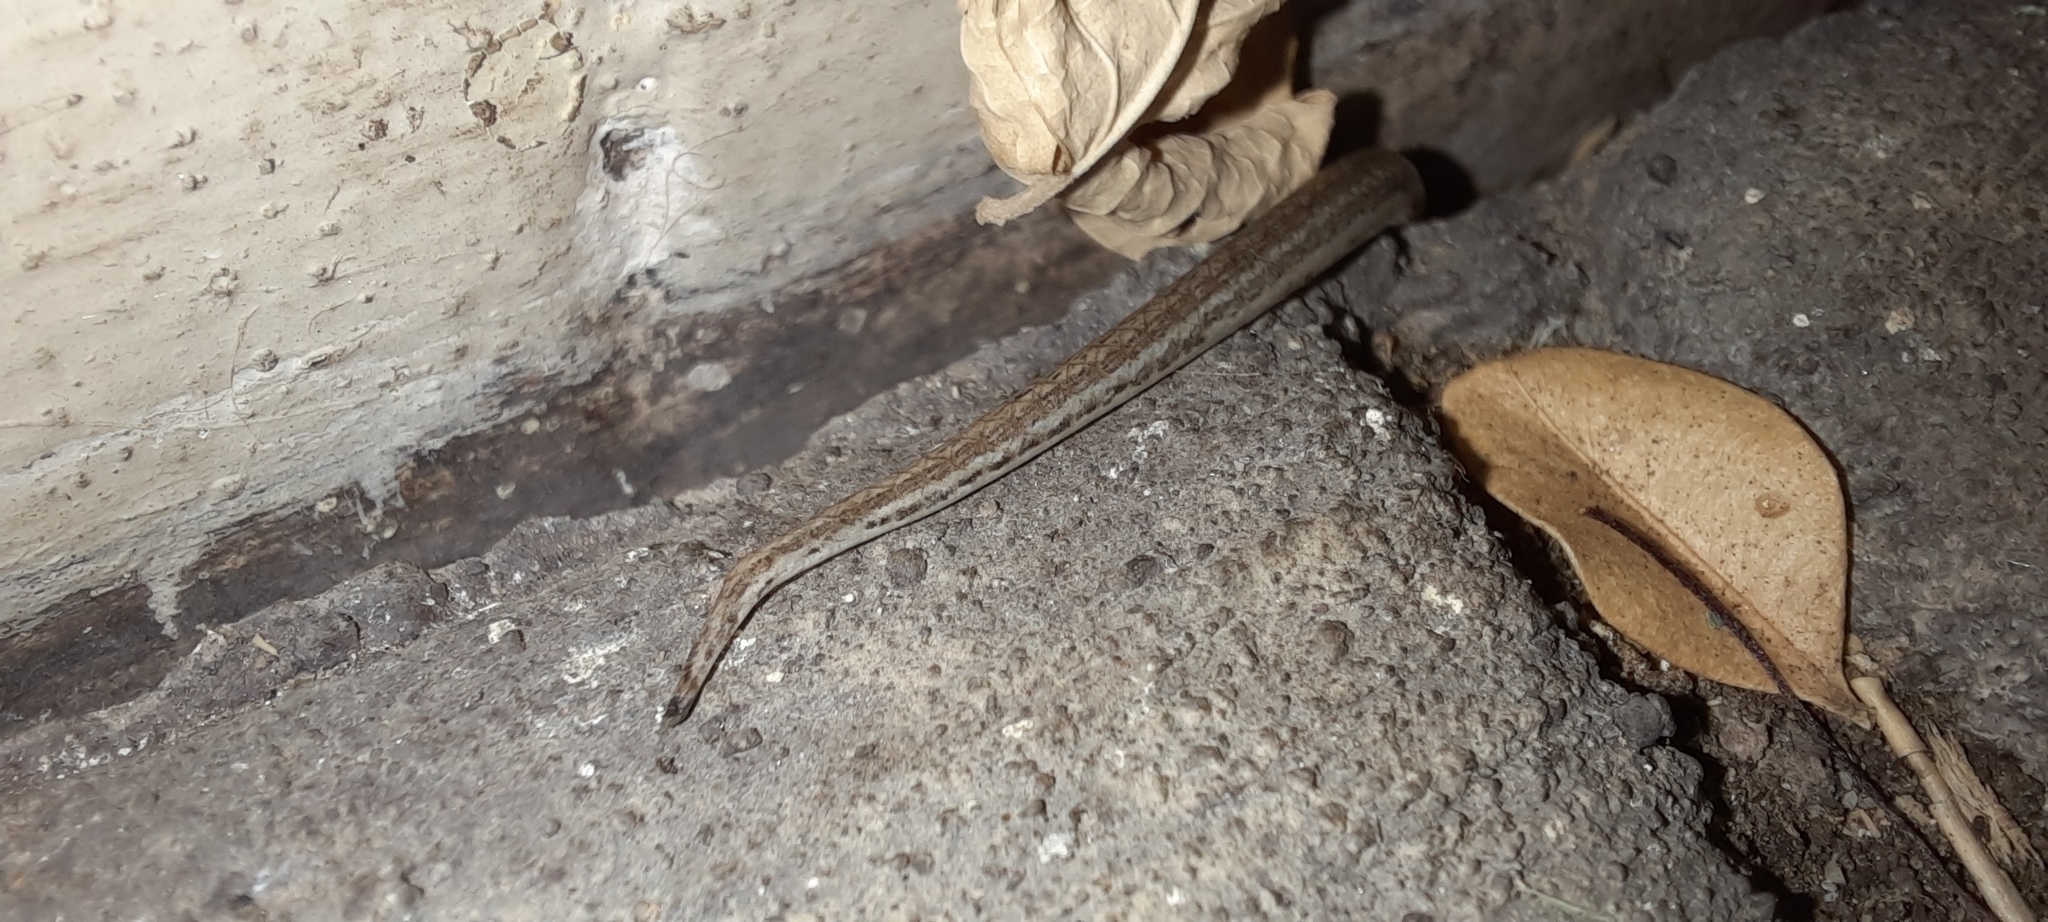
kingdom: Animalia
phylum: Chordata
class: Squamata
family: Scincidae
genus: Saproscincus
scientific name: Saproscincus mustelinus
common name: Southern weasel skink
